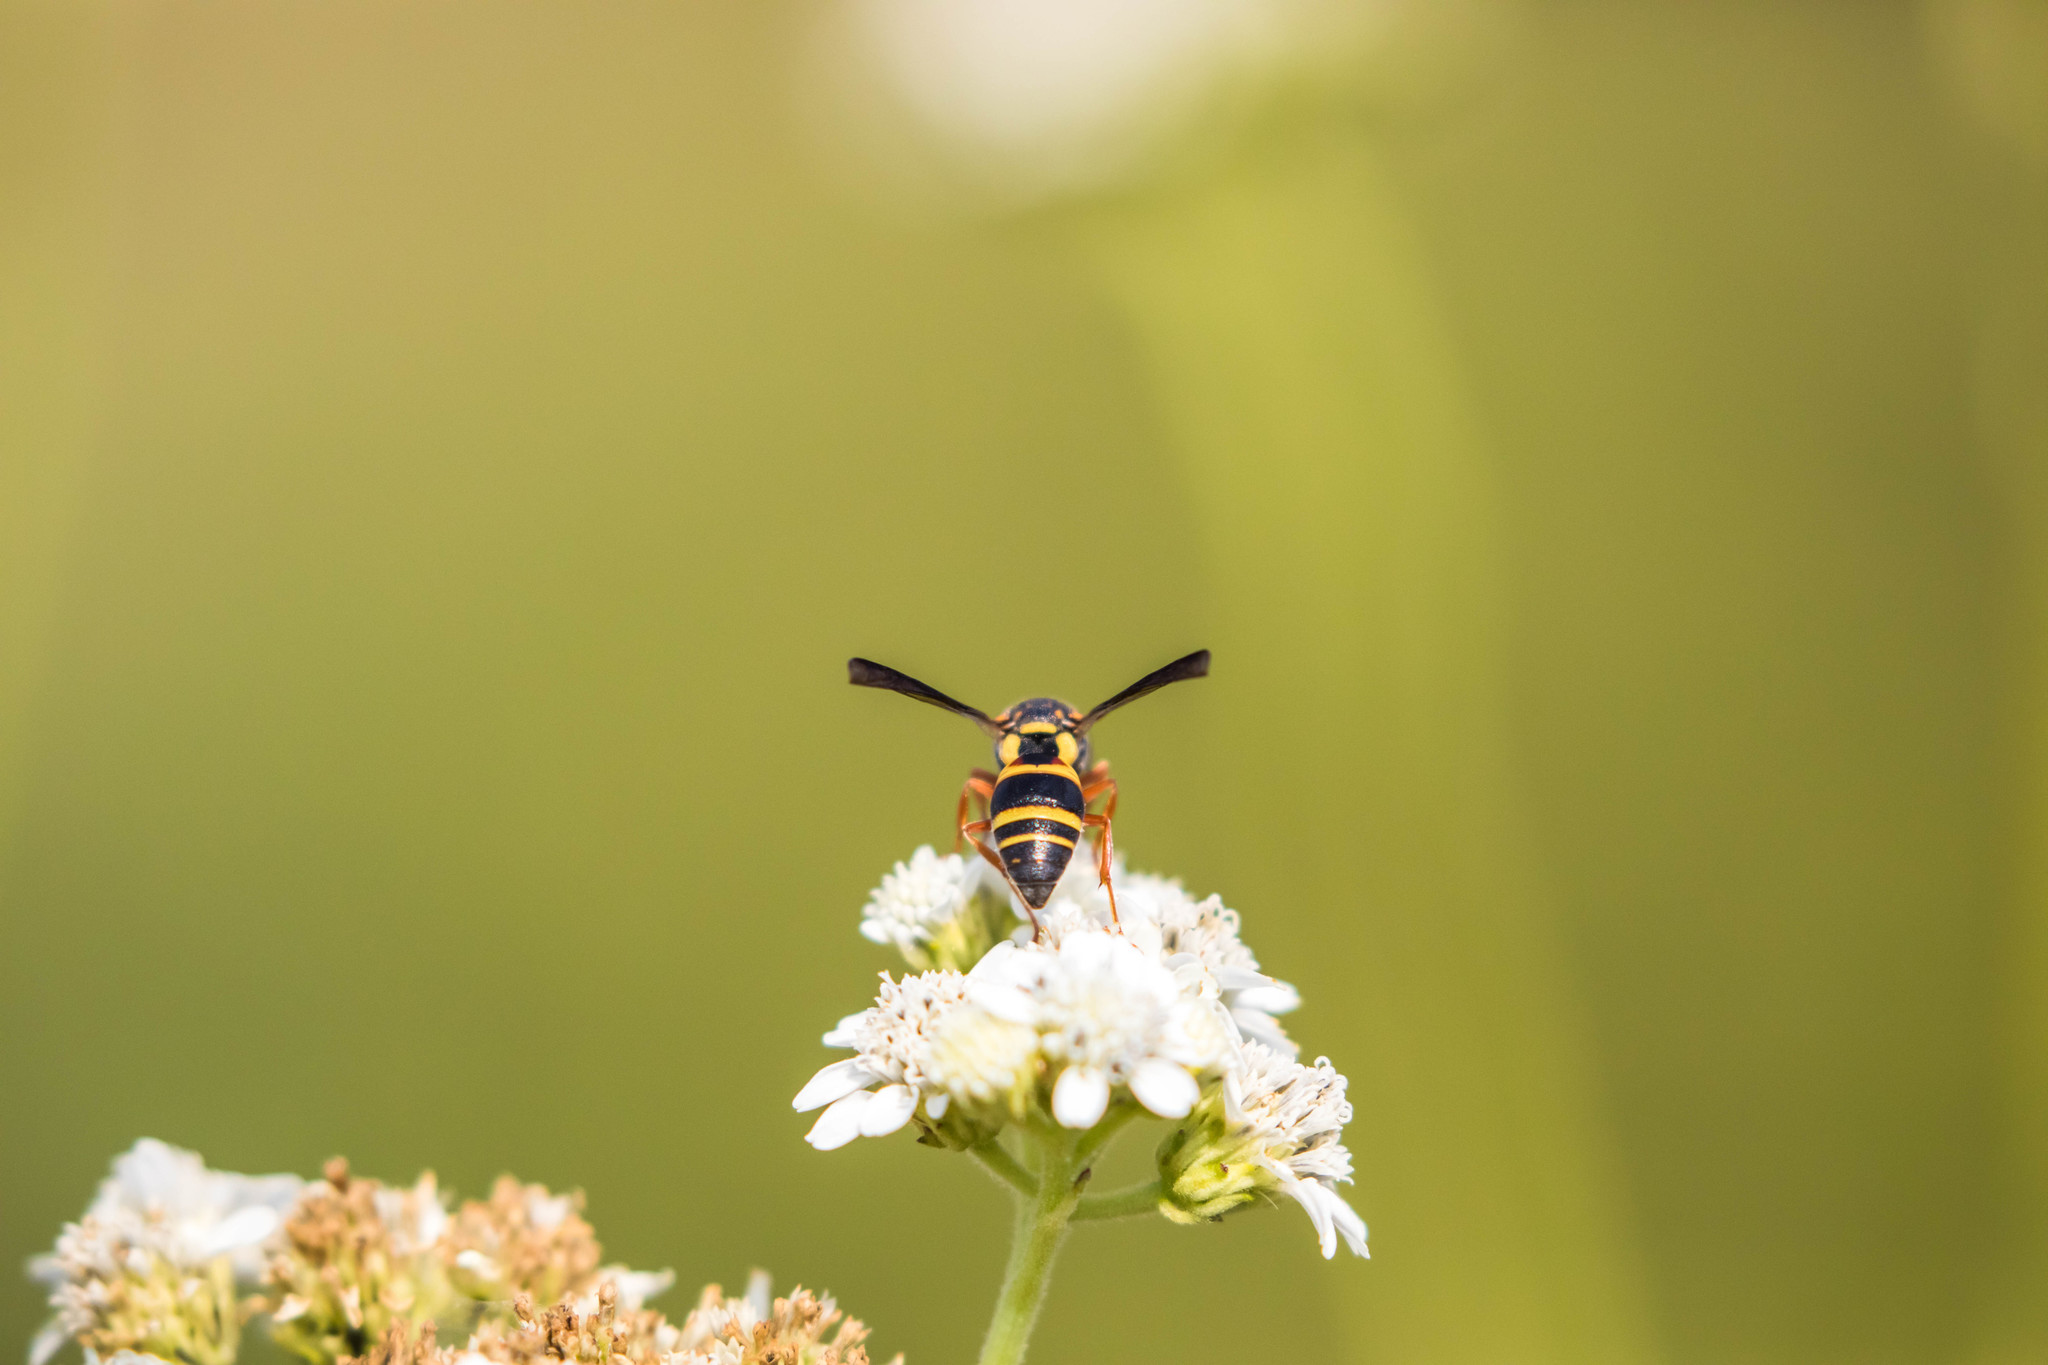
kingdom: Animalia
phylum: Arthropoda
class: Insecta
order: Hymenoptera
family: Eumenidae
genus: Euodynerus
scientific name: Euodynerus annulatus
